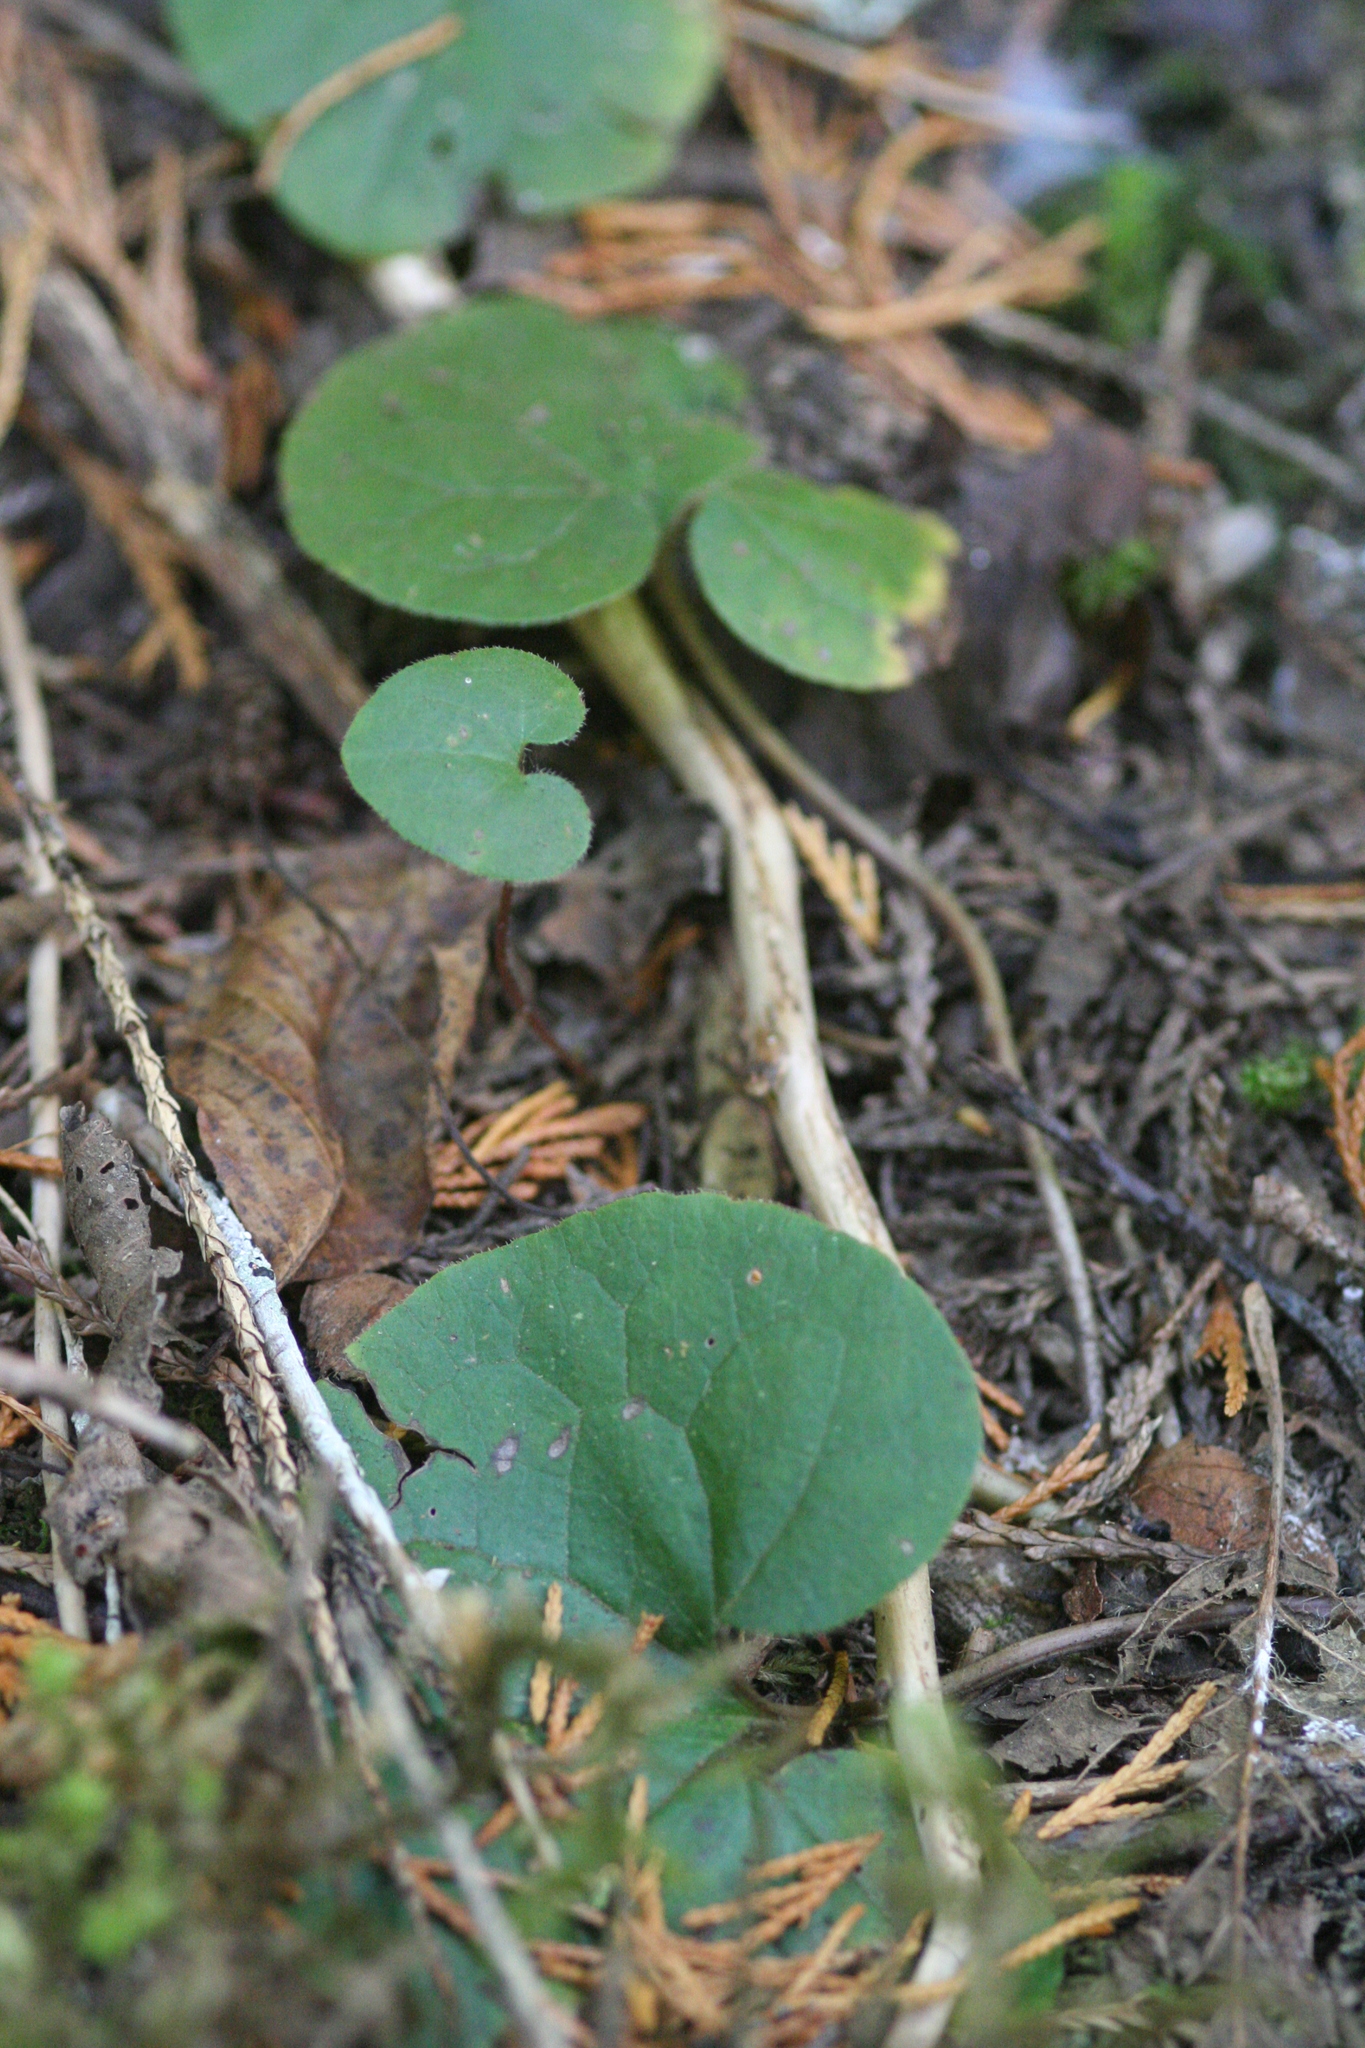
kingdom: Plantae
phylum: Tracheophyta
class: Magnoliopsida
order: Piperales
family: Aristolochiaceae
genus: Asarum
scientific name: Asarum caudatum
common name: Wild ginger
